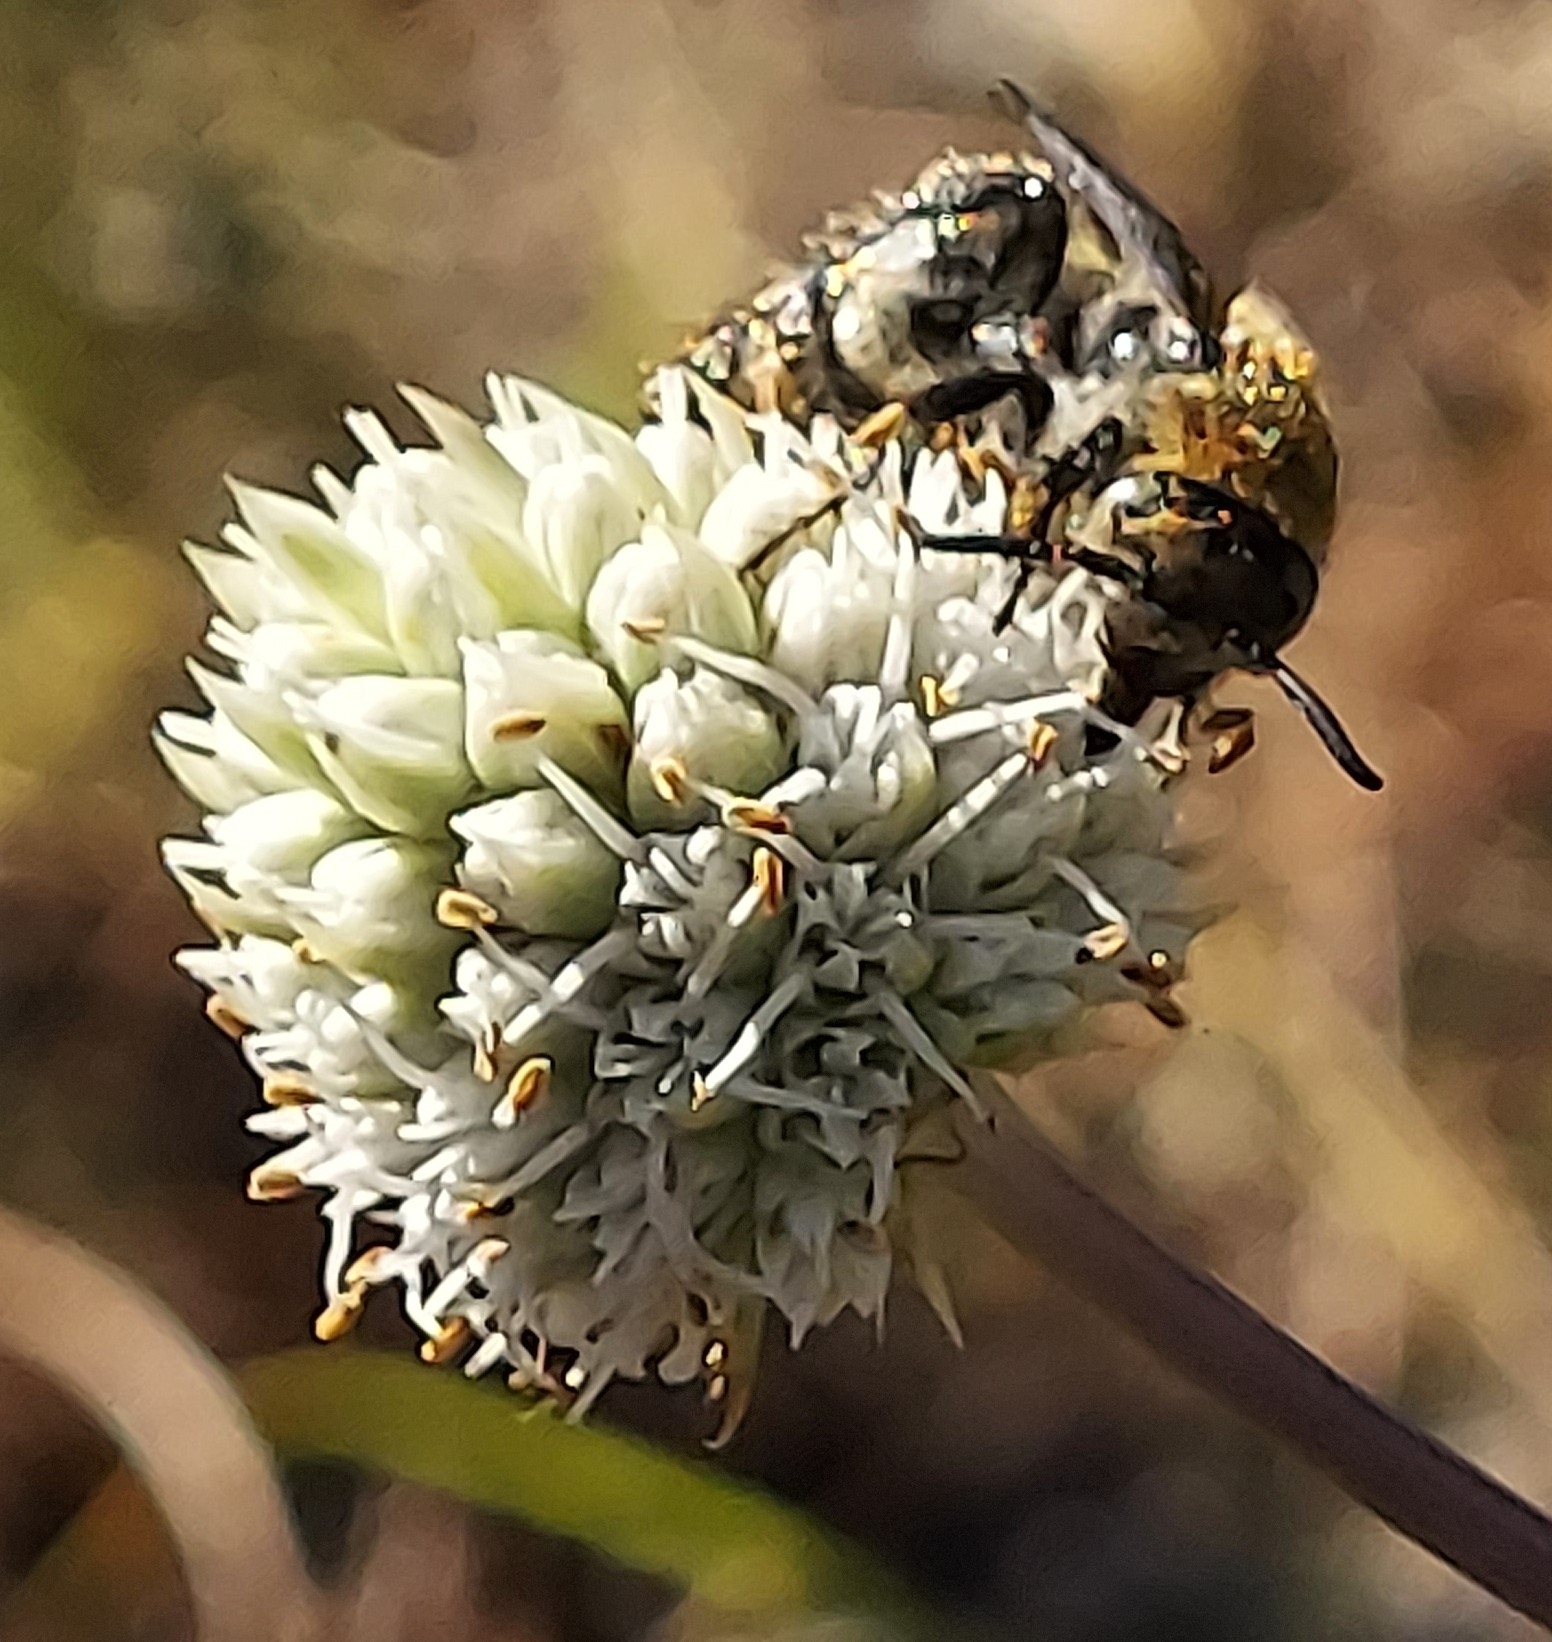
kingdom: Animalia
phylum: Arthropoda
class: Insecta
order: Hymenoptera
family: Scoliidae
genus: Dielis
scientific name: Dielis
